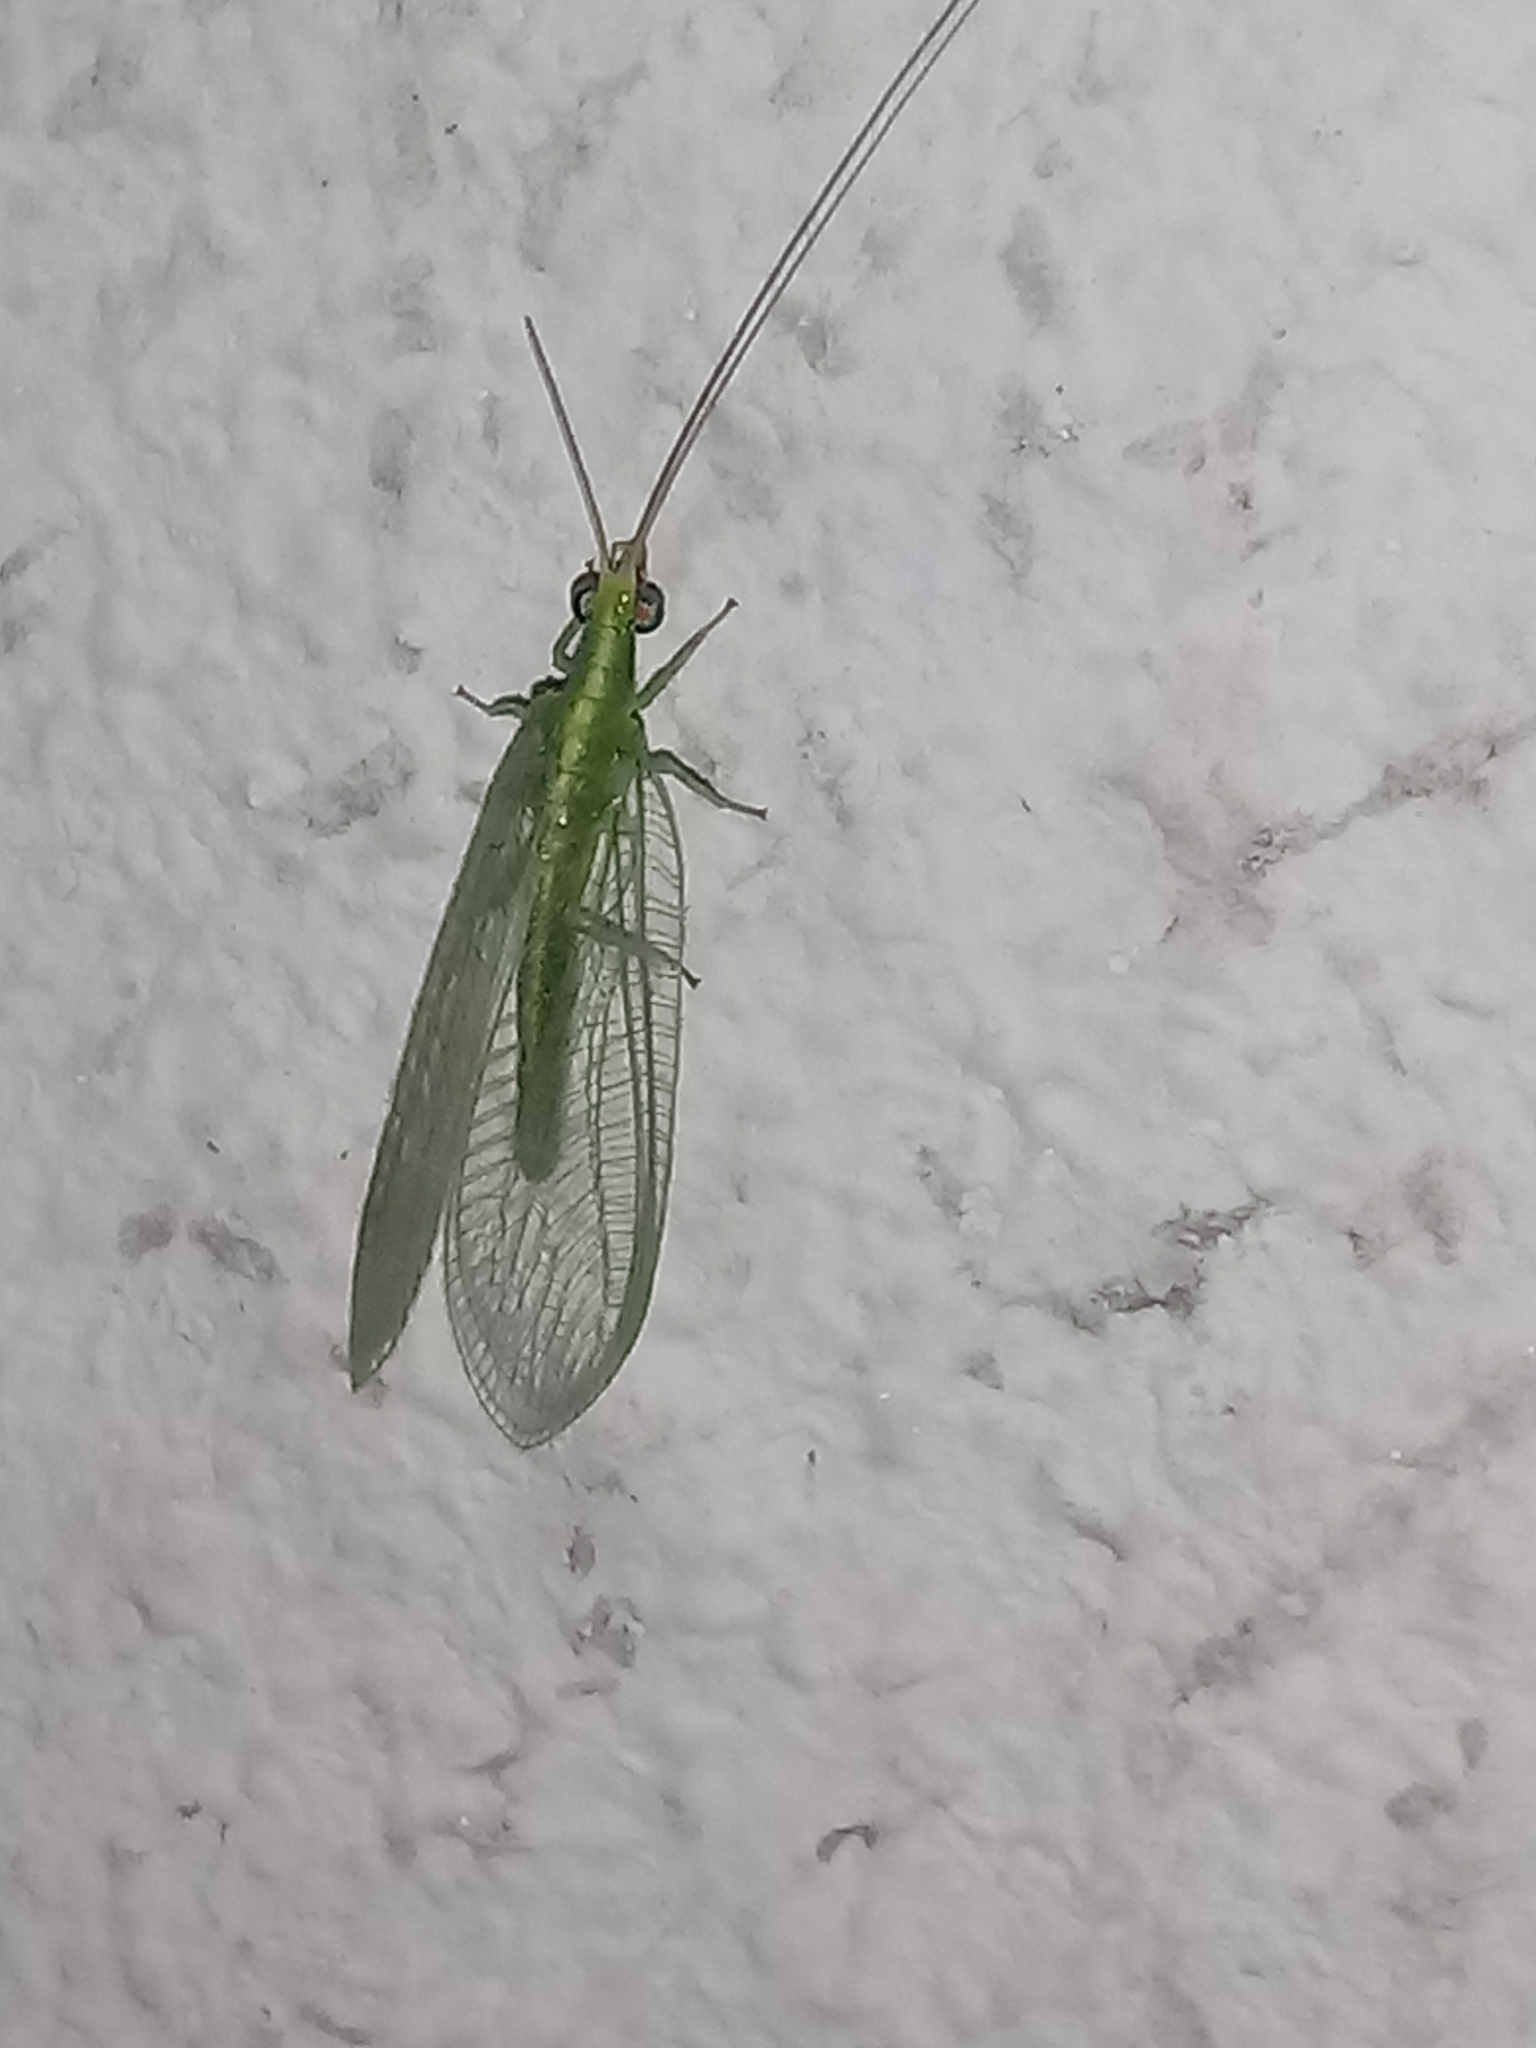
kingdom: Animalia
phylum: Arthropoda
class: Insecta
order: Neuroptera
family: Chrysopidae
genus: Chrysoperla
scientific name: Chrysoperla
